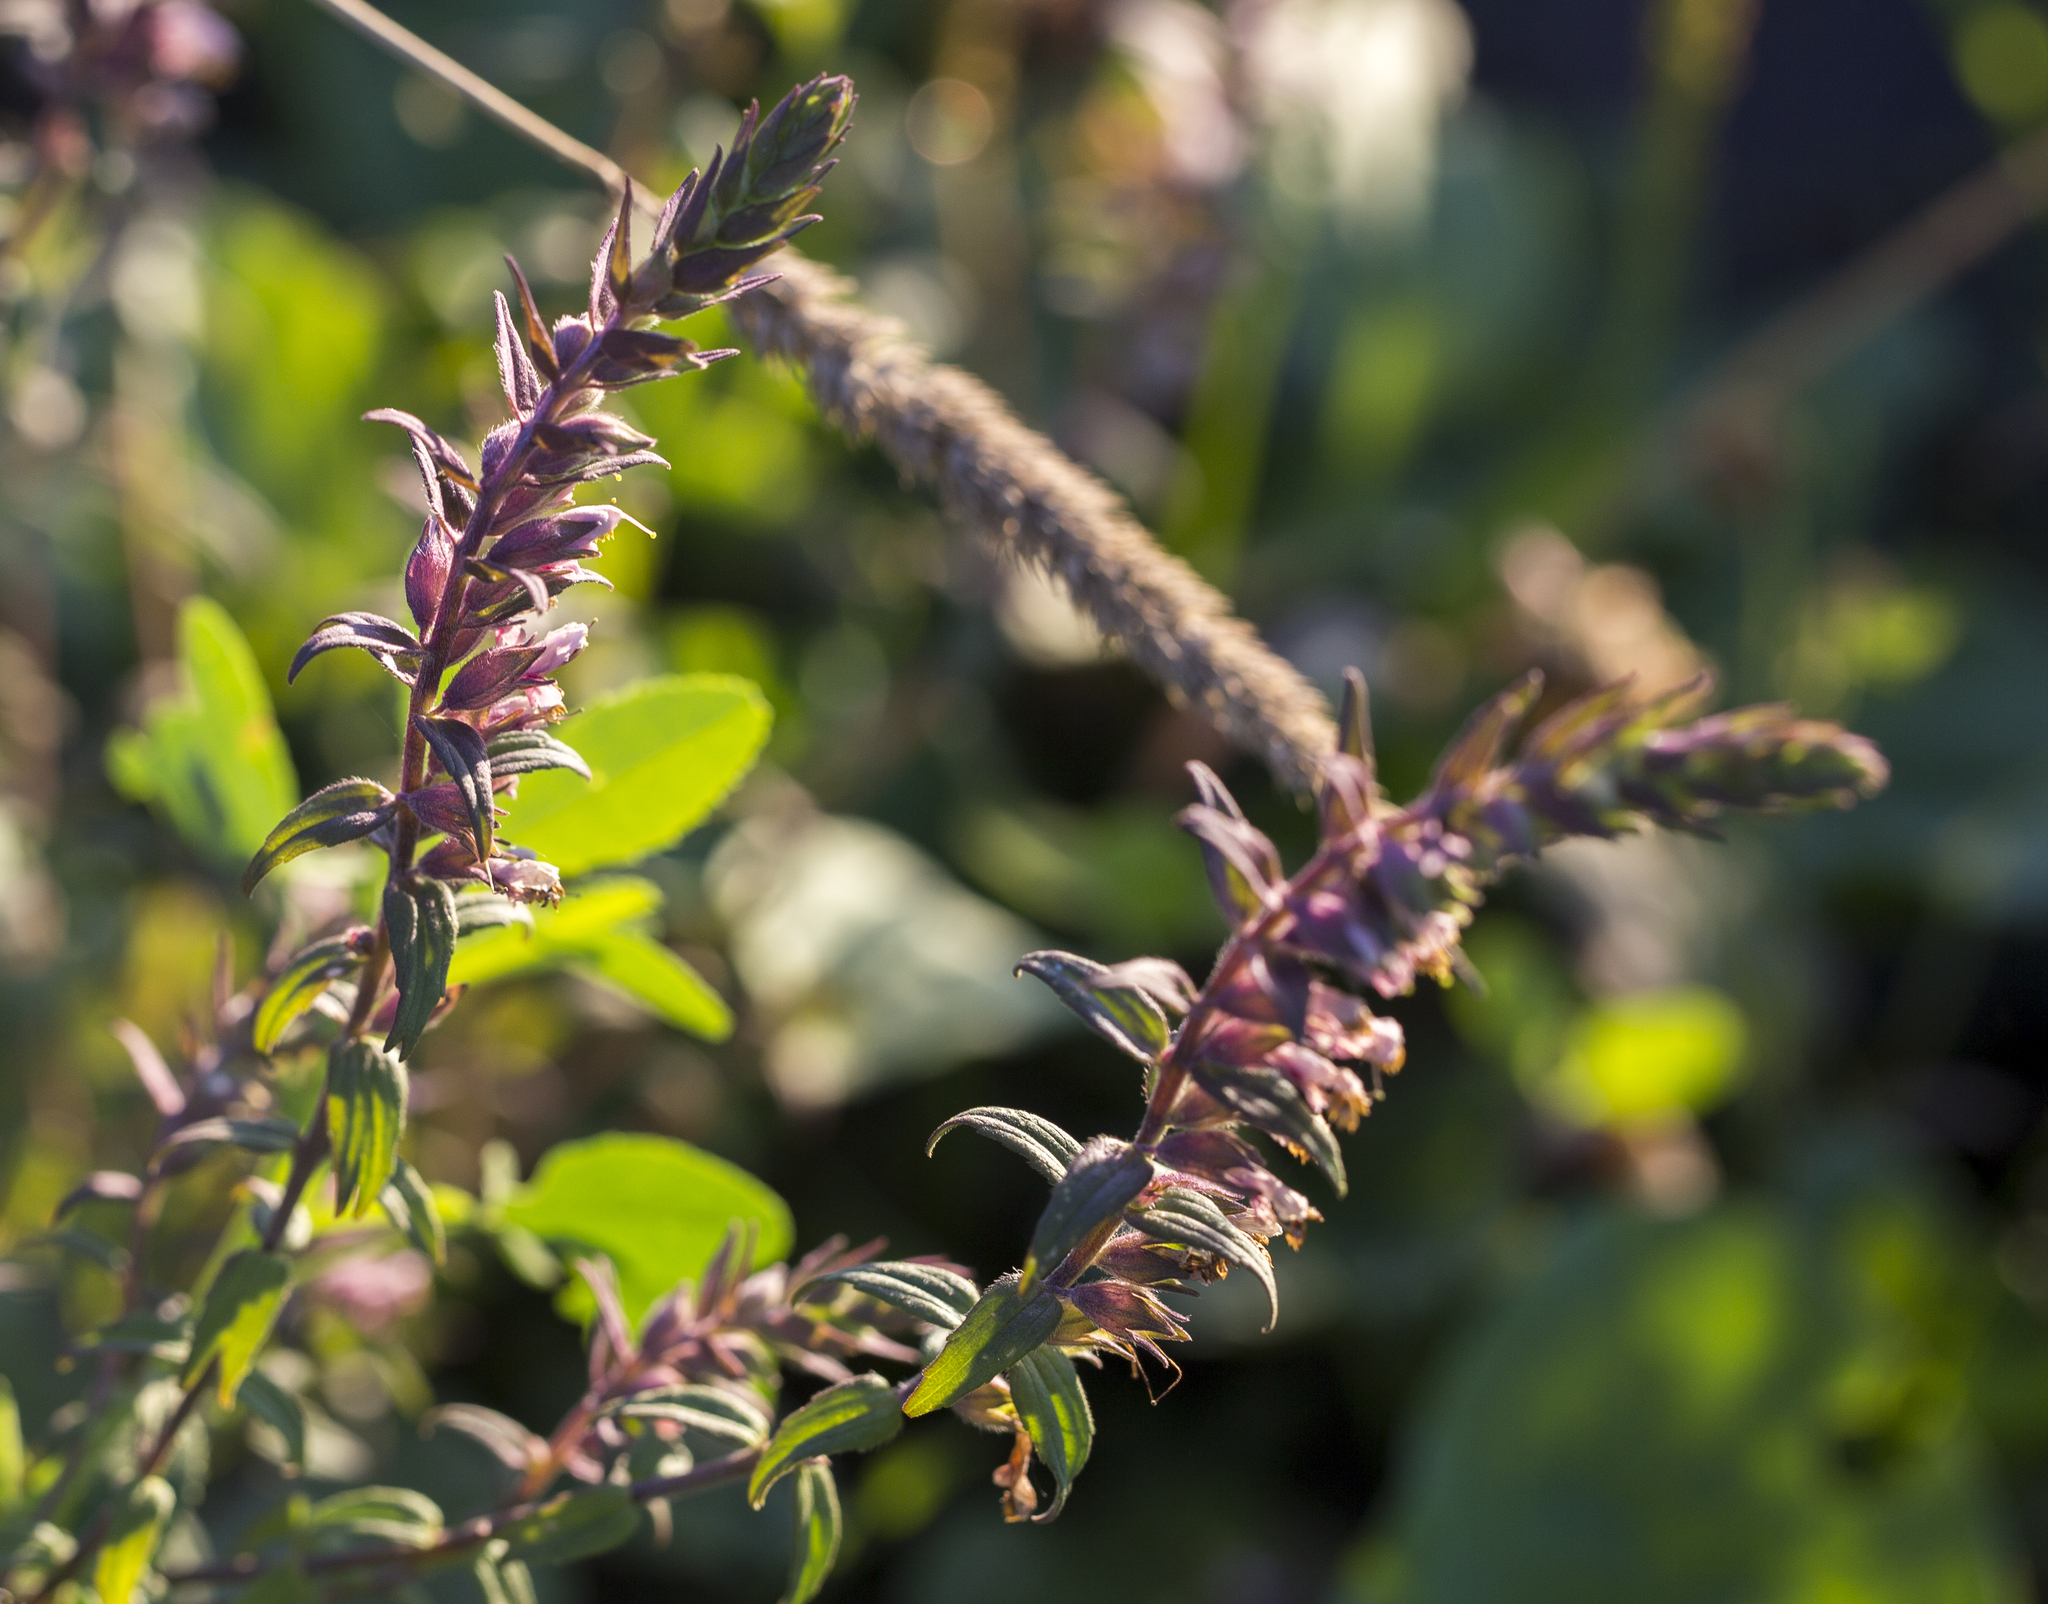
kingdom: Plantae
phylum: Tracheophyta
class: Magnoliopsida
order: Lamiales
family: Orobanchaceae
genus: Odontites
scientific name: Odontites vulgaris
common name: Broomrape
